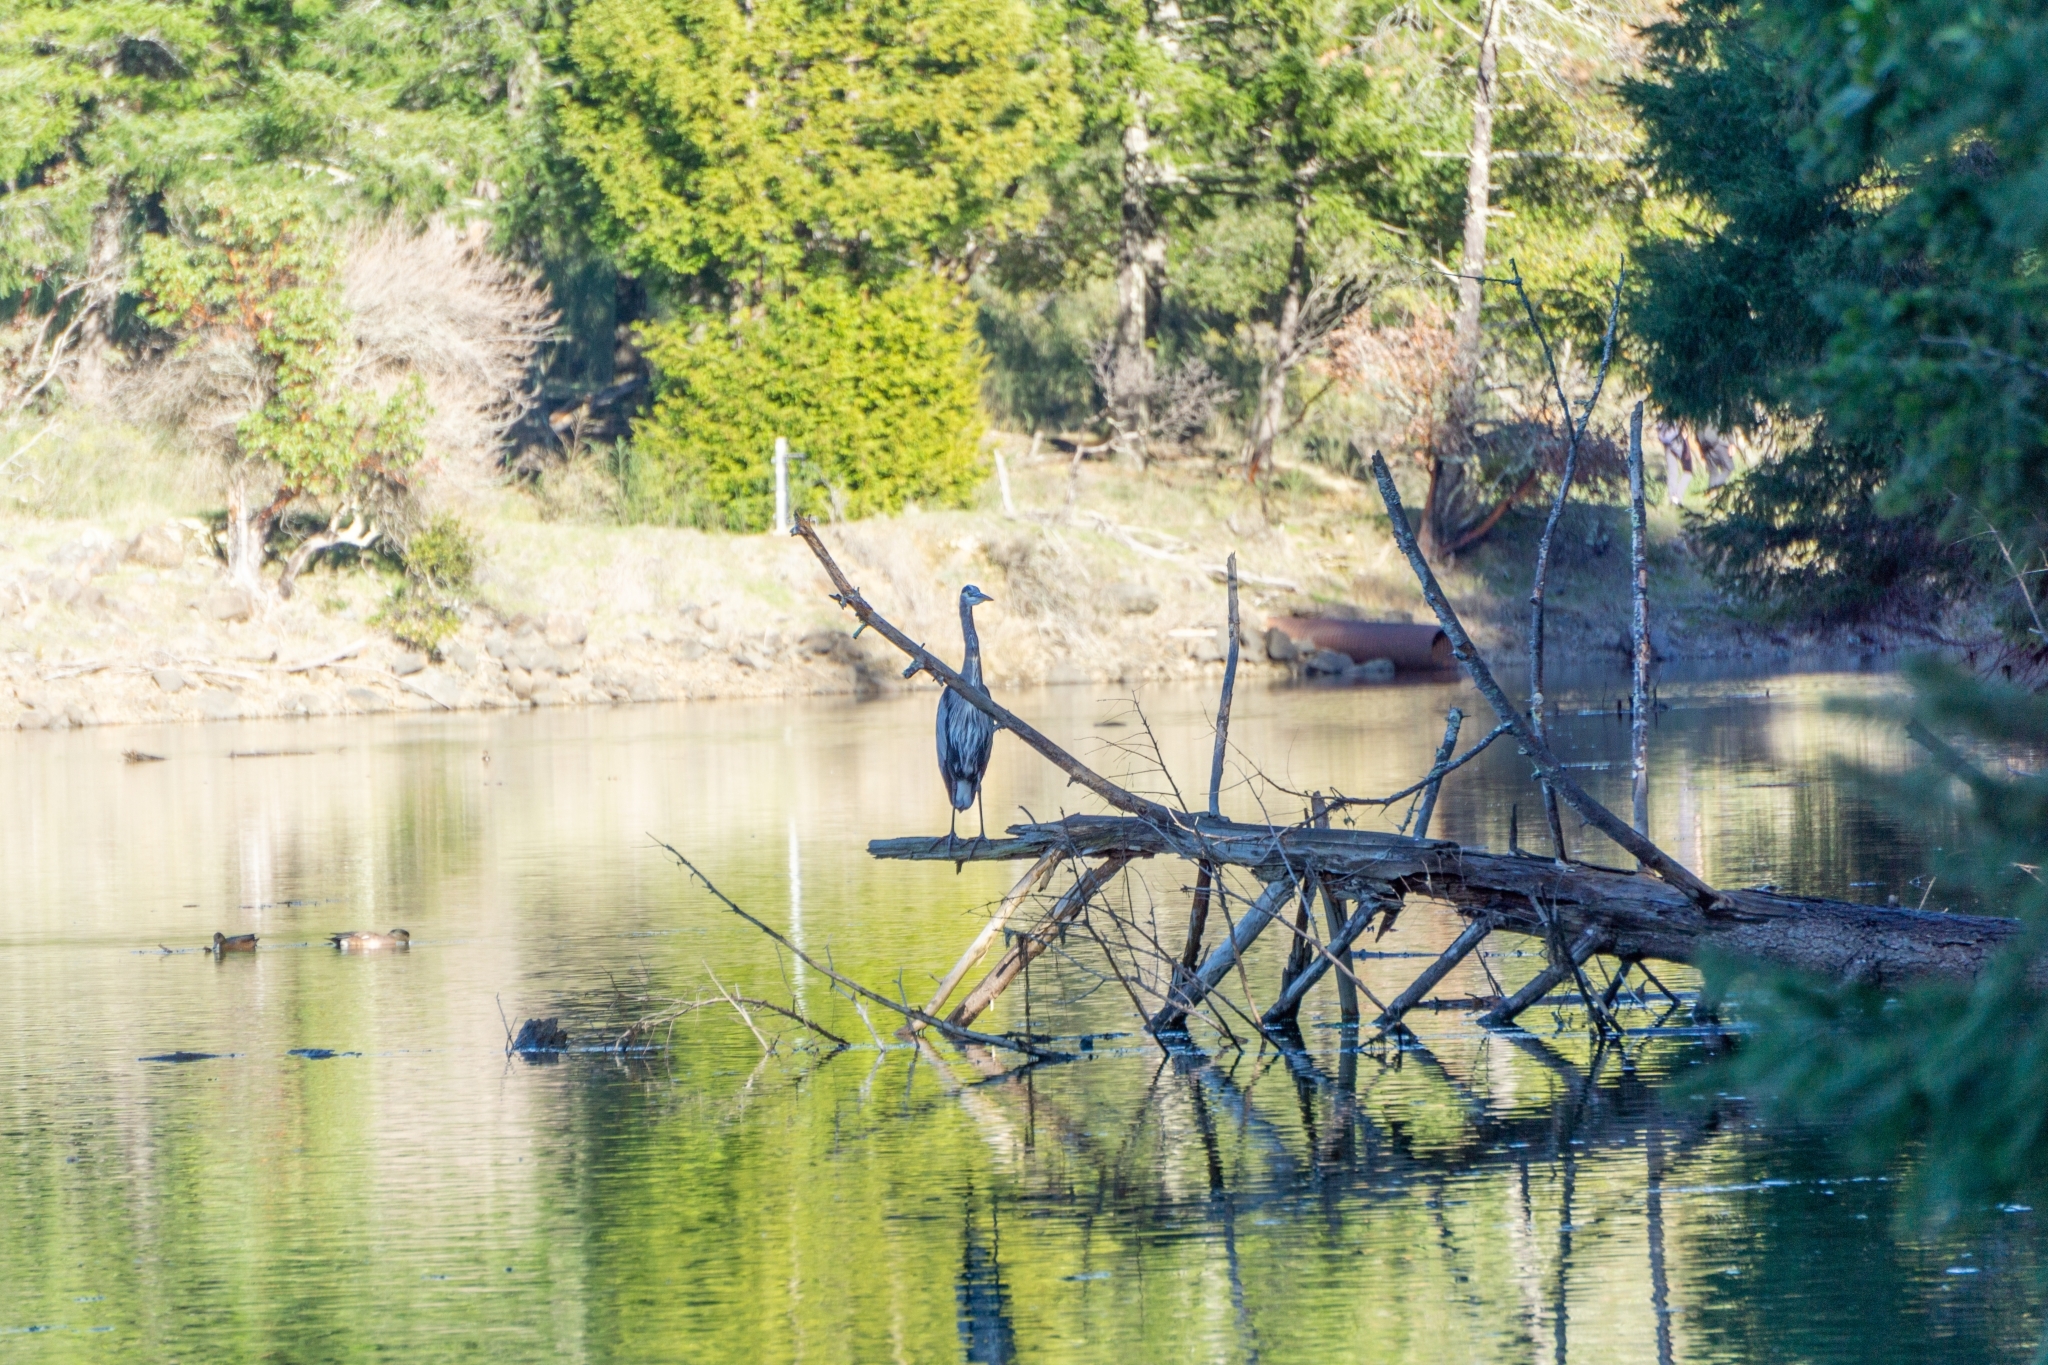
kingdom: Animalia
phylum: Chordata
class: Aves
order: Pelecaniformes
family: Ardeidae
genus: Ardea
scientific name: Ardea herodias
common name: Great blue heron
